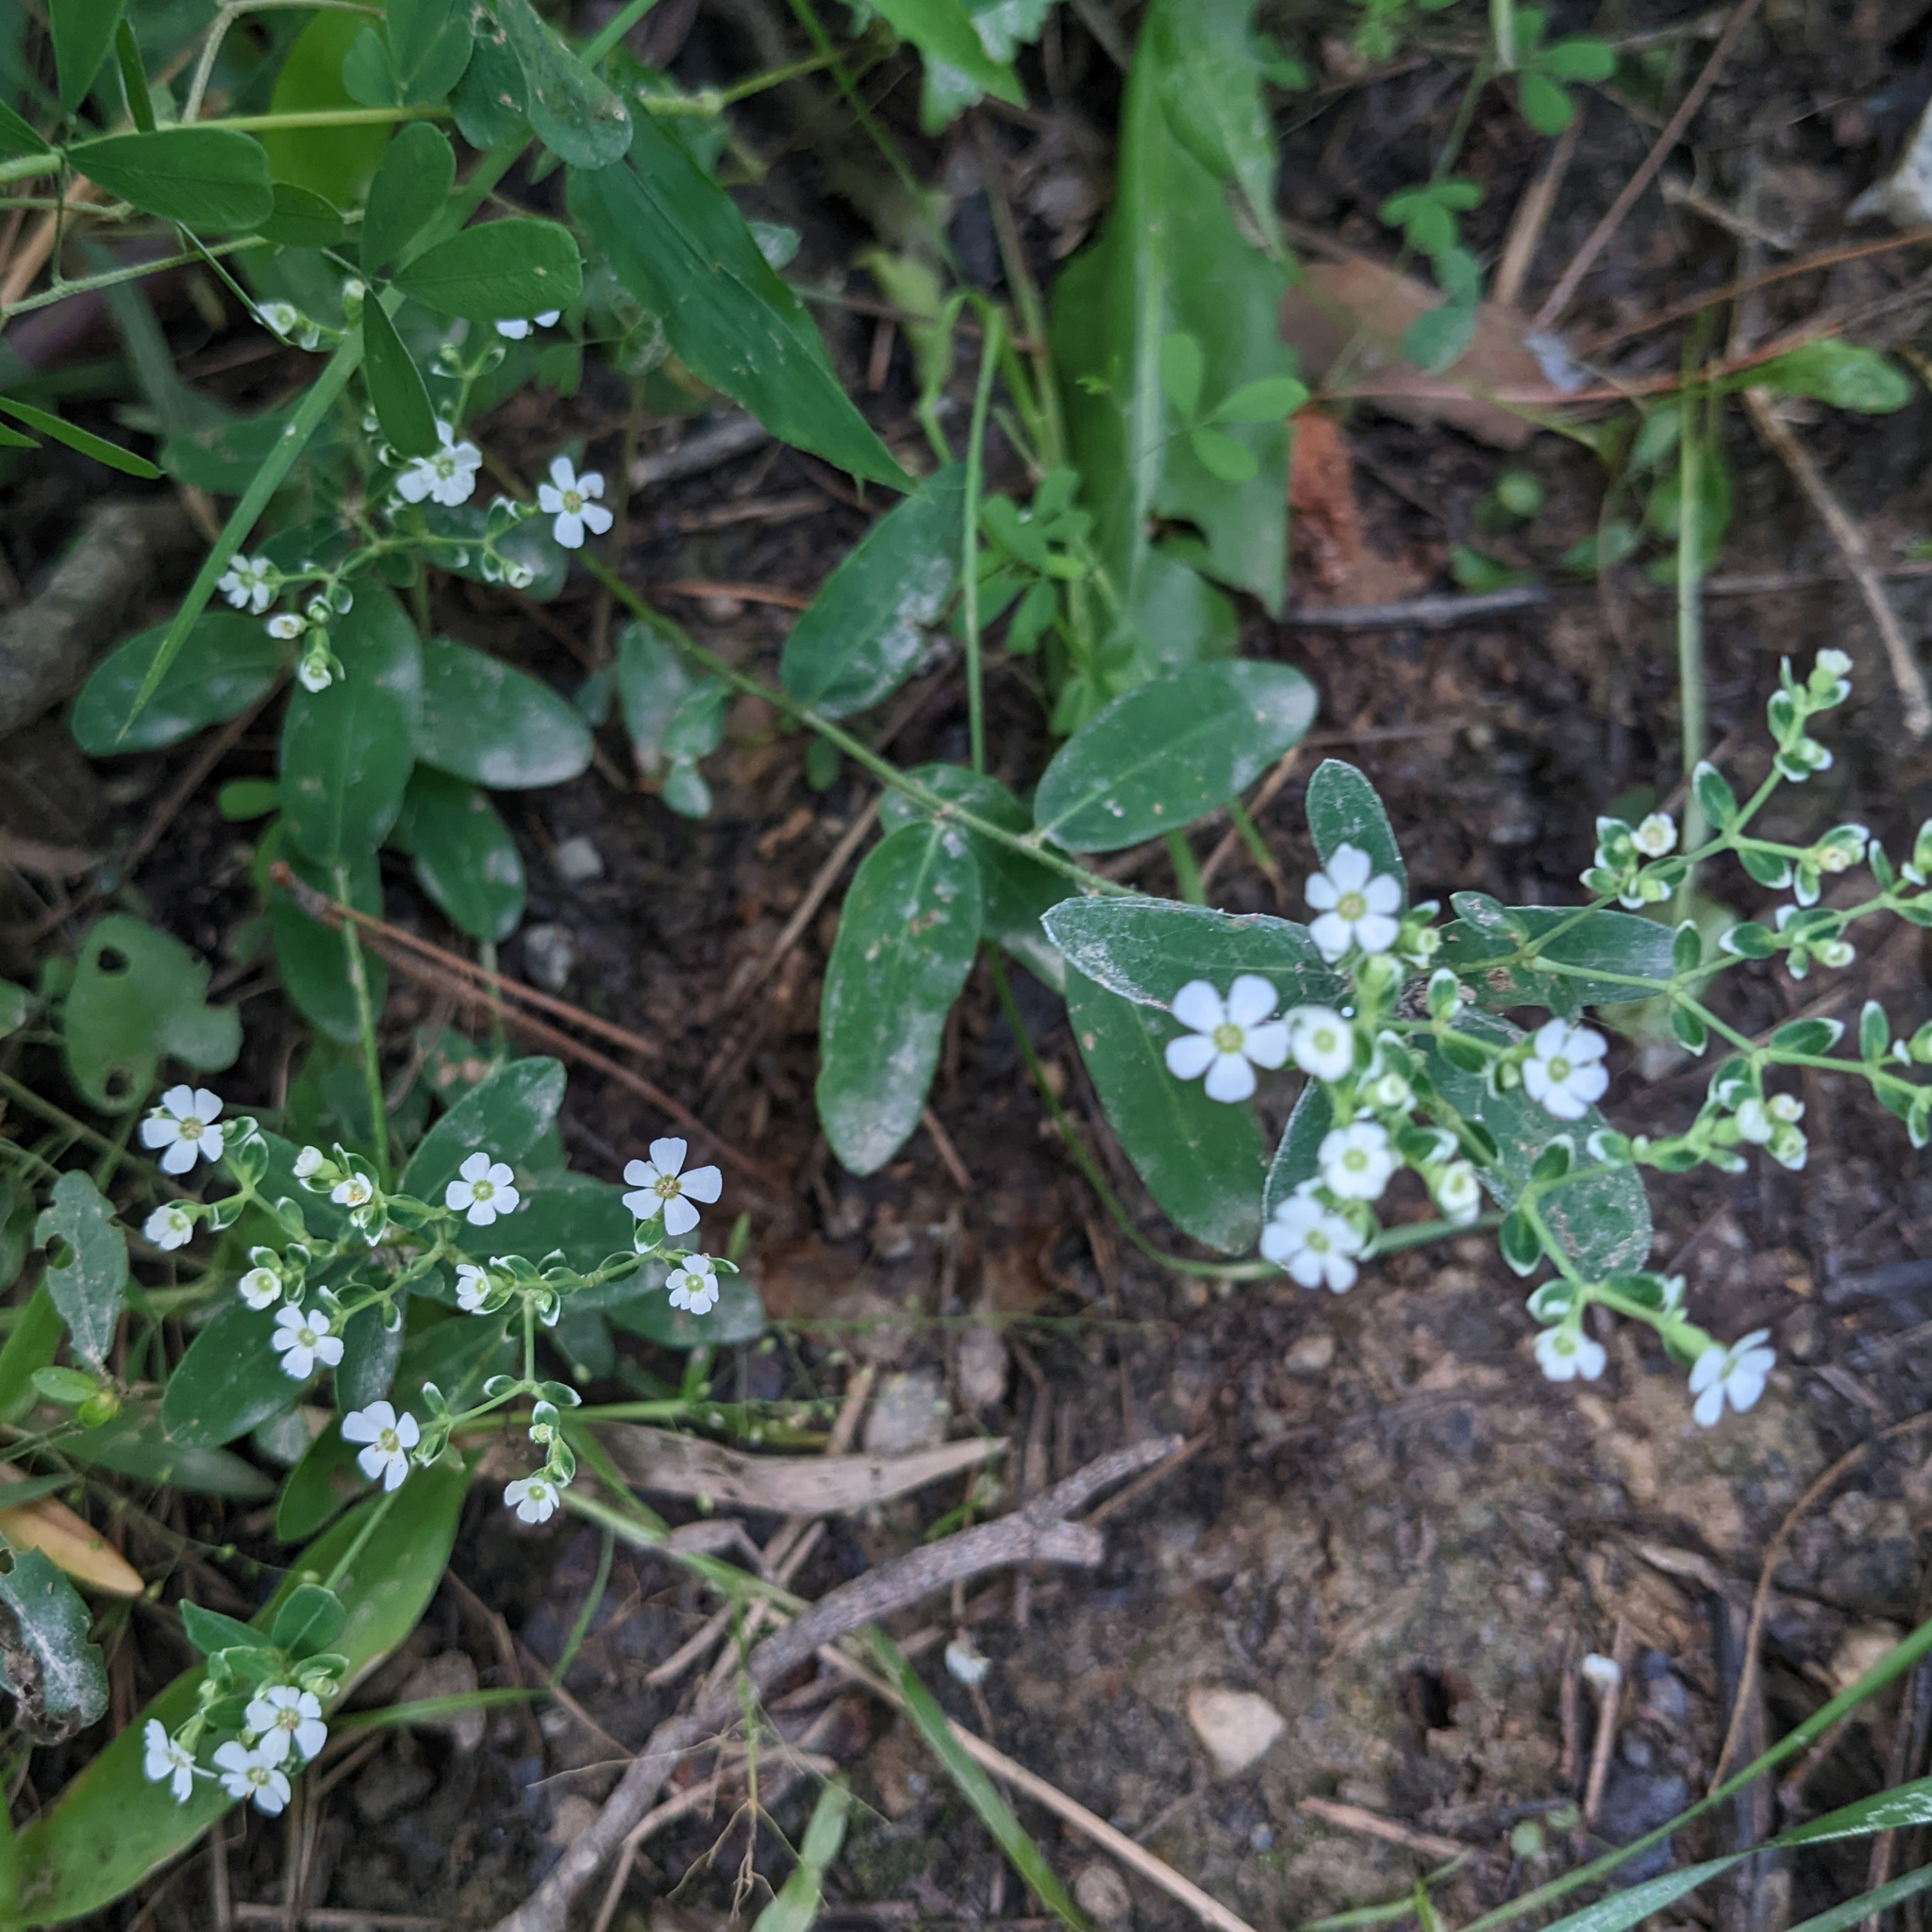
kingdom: Plantae
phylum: Tracheophyta
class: Magnoliopsida
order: Malpighiales
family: Euphorbiaceae
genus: Euphorbia
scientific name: Euphorbia corollata
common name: Flowering spurge
